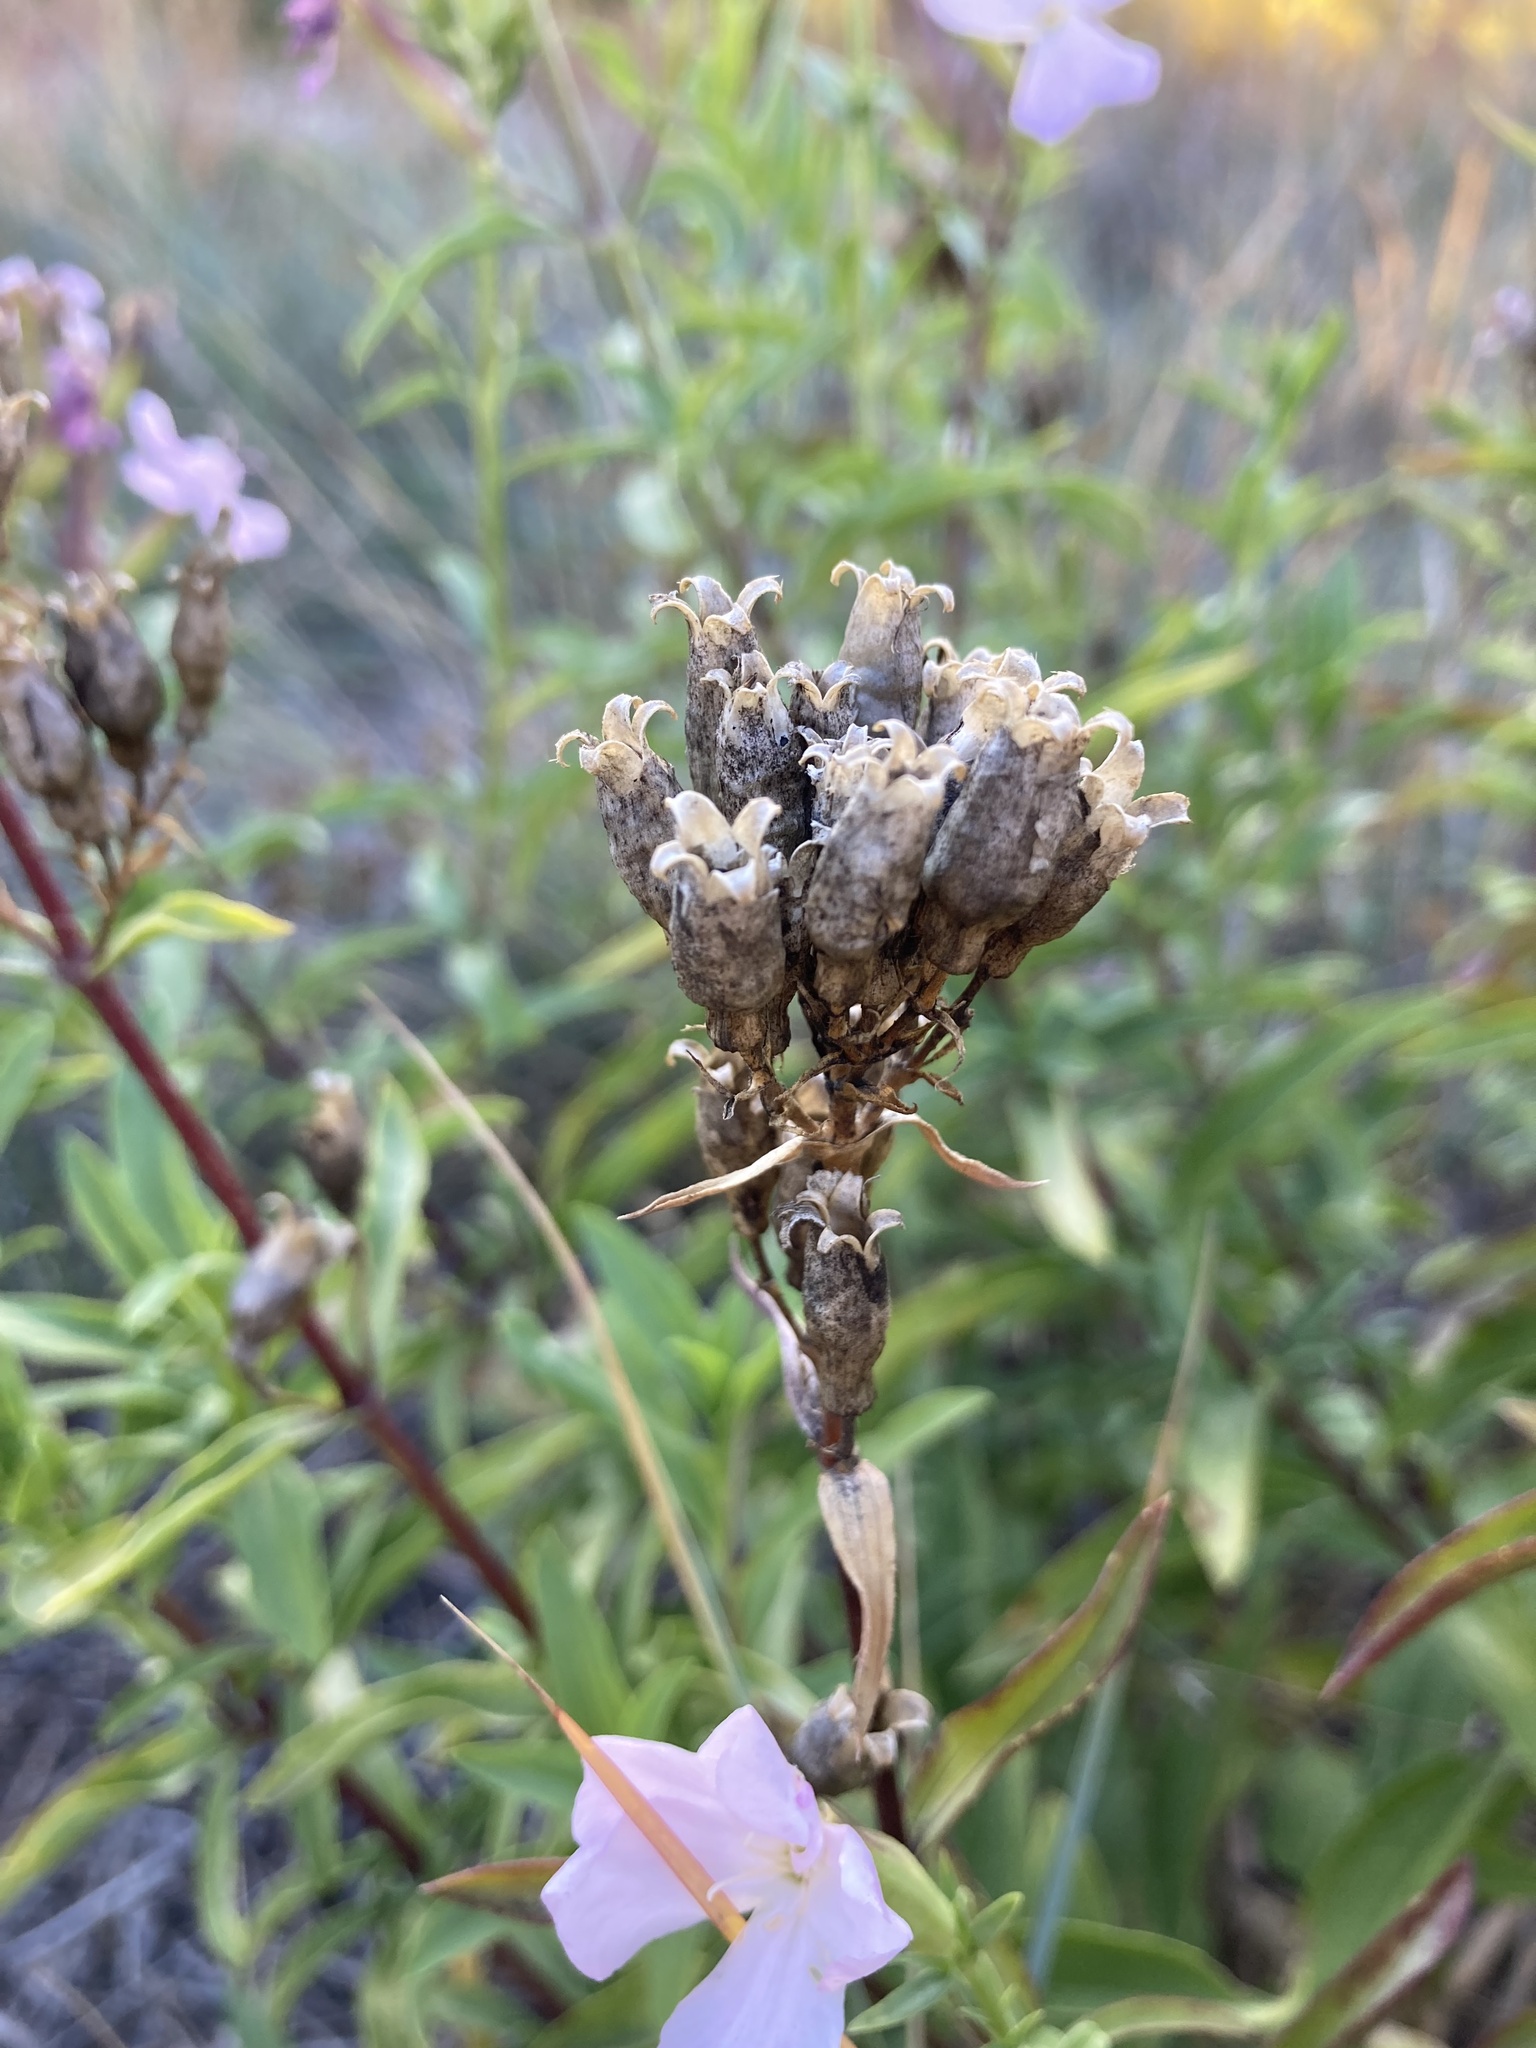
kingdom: Plantae
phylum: Tracheophyta
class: Magnoliopsida
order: Caryophyllales
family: Caryophyllaceae
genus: Saponaria
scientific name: Saponaria officinalis
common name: Soapwort
